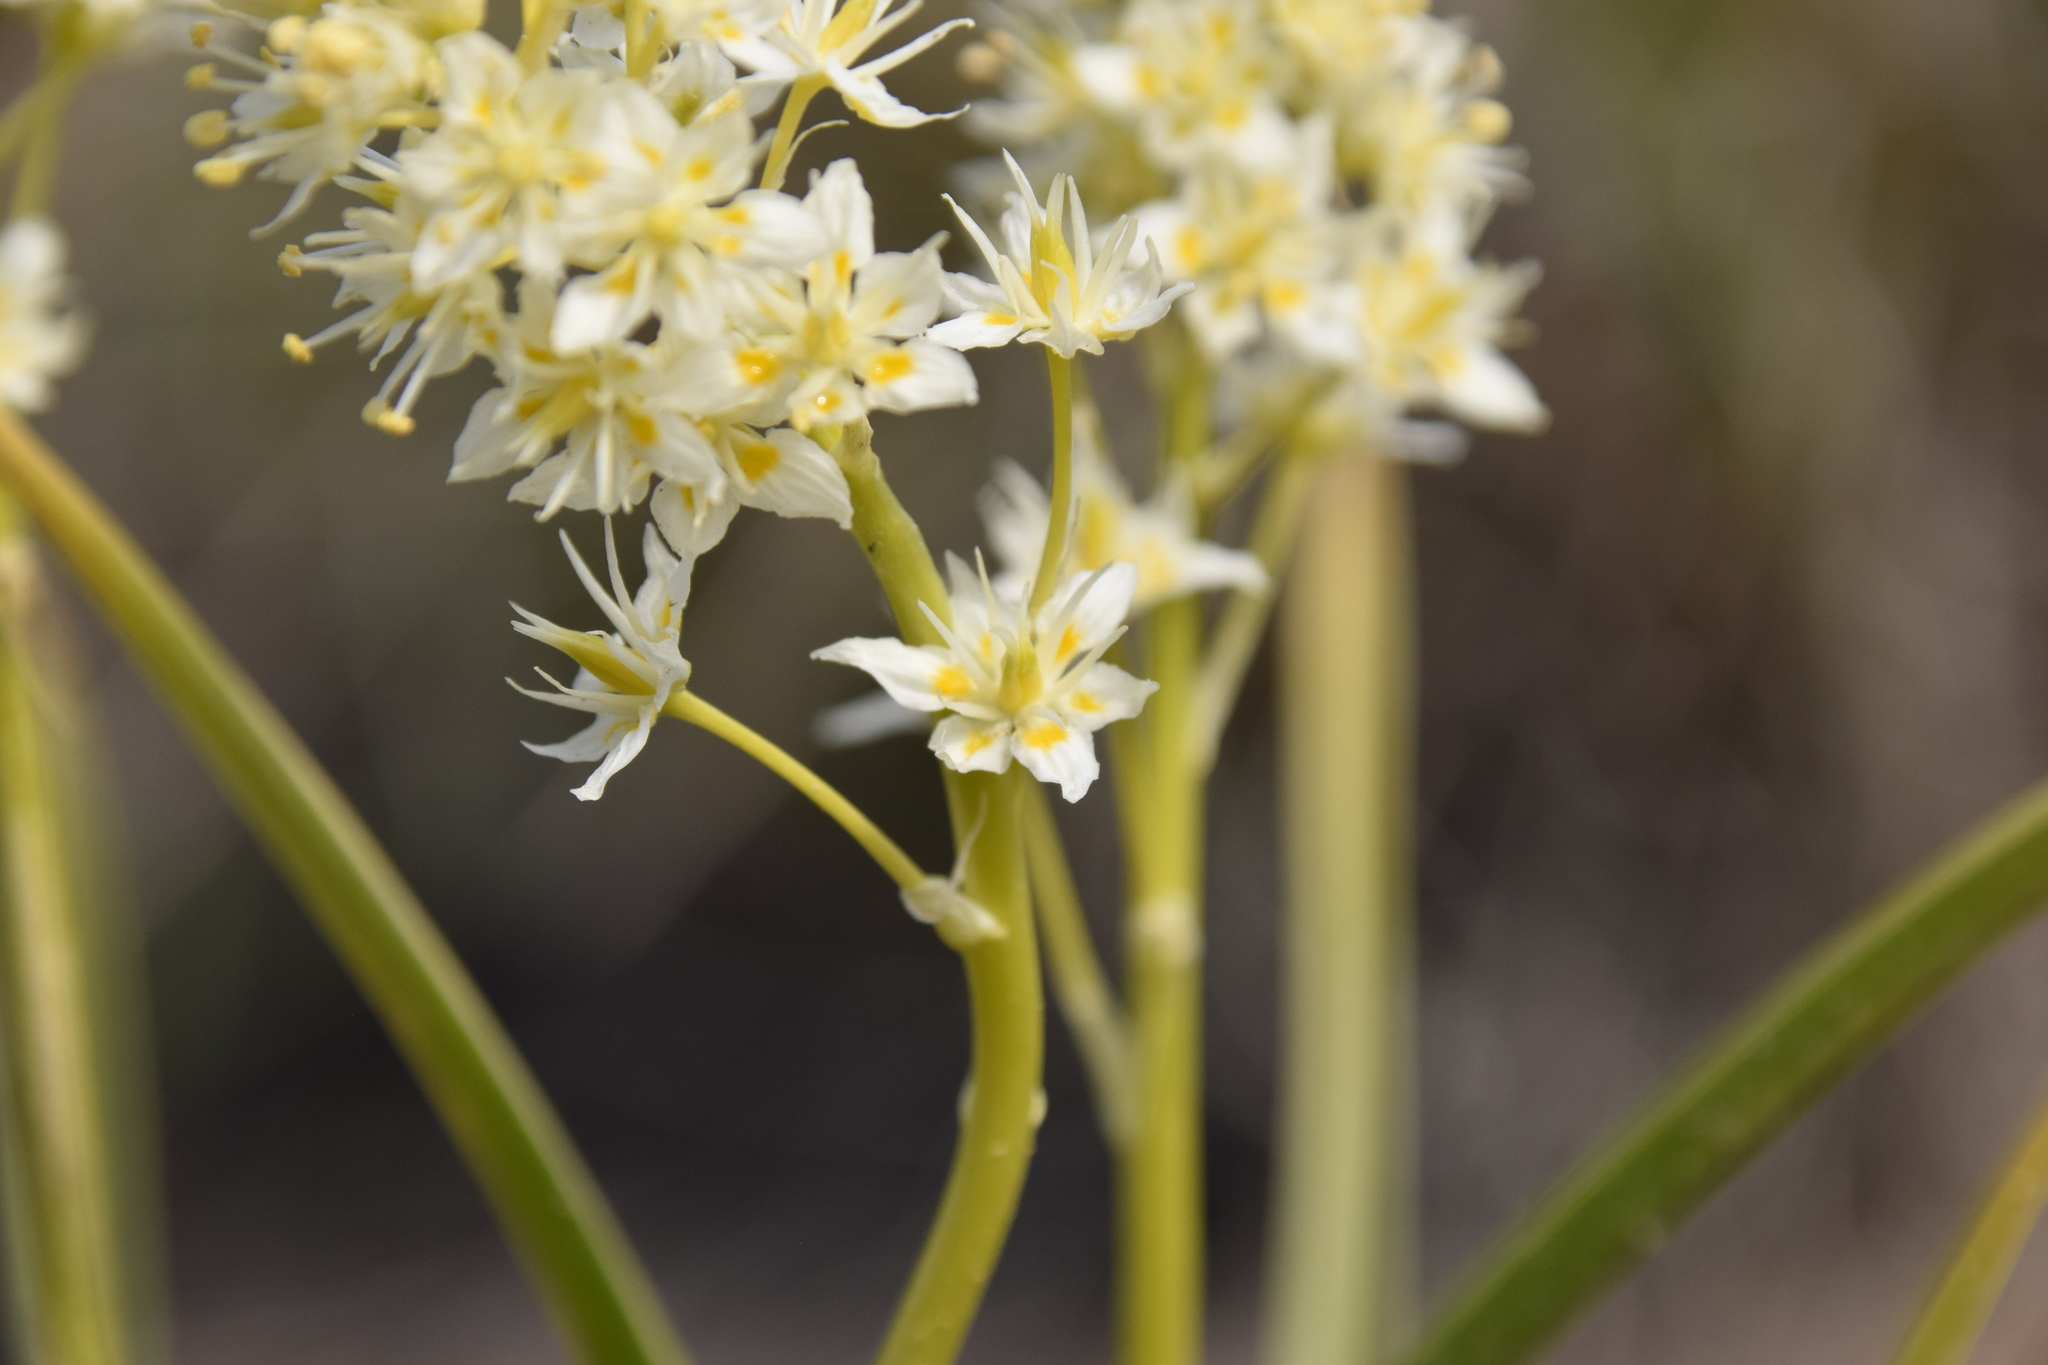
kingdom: Plantae
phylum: Tracheophyta
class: Liliopsida
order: Liliales
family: Melanthiaceae
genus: Toxicoscordion
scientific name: Toxicoscordion paniculatum
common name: Foothill death camas
